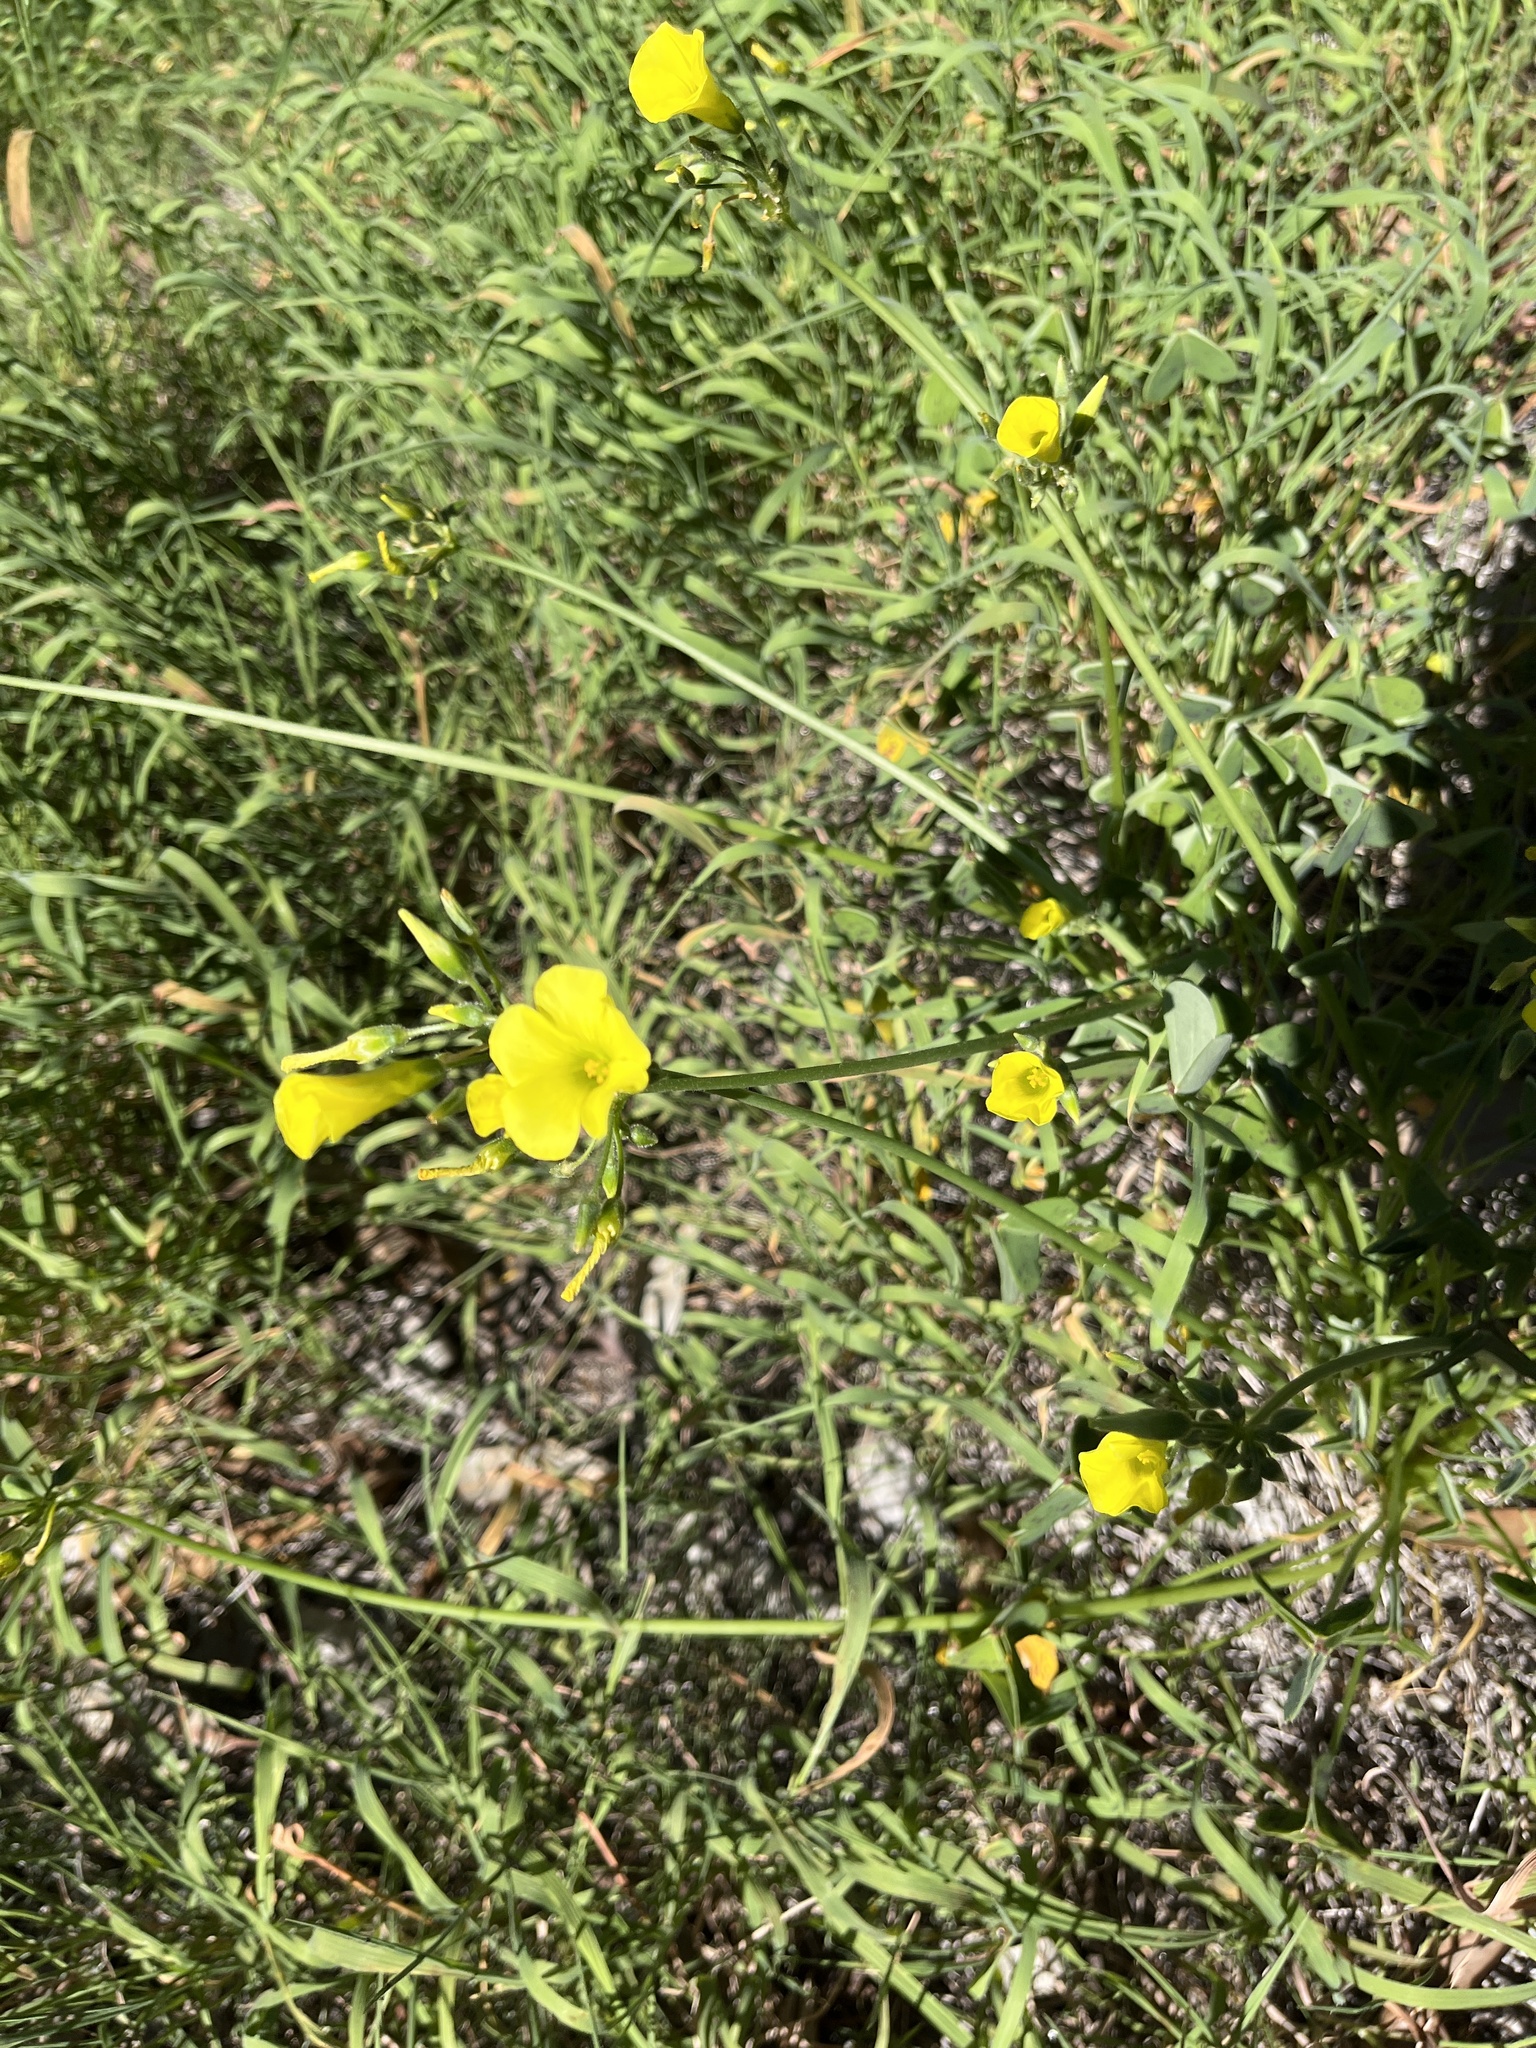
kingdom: Plantae
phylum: Tracheophyta
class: Magnoliopsida
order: Oxalidales
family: Oxalidaceae
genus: Oxalis
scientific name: Oxalis pes-caprae
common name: Bermuda-buttercup
